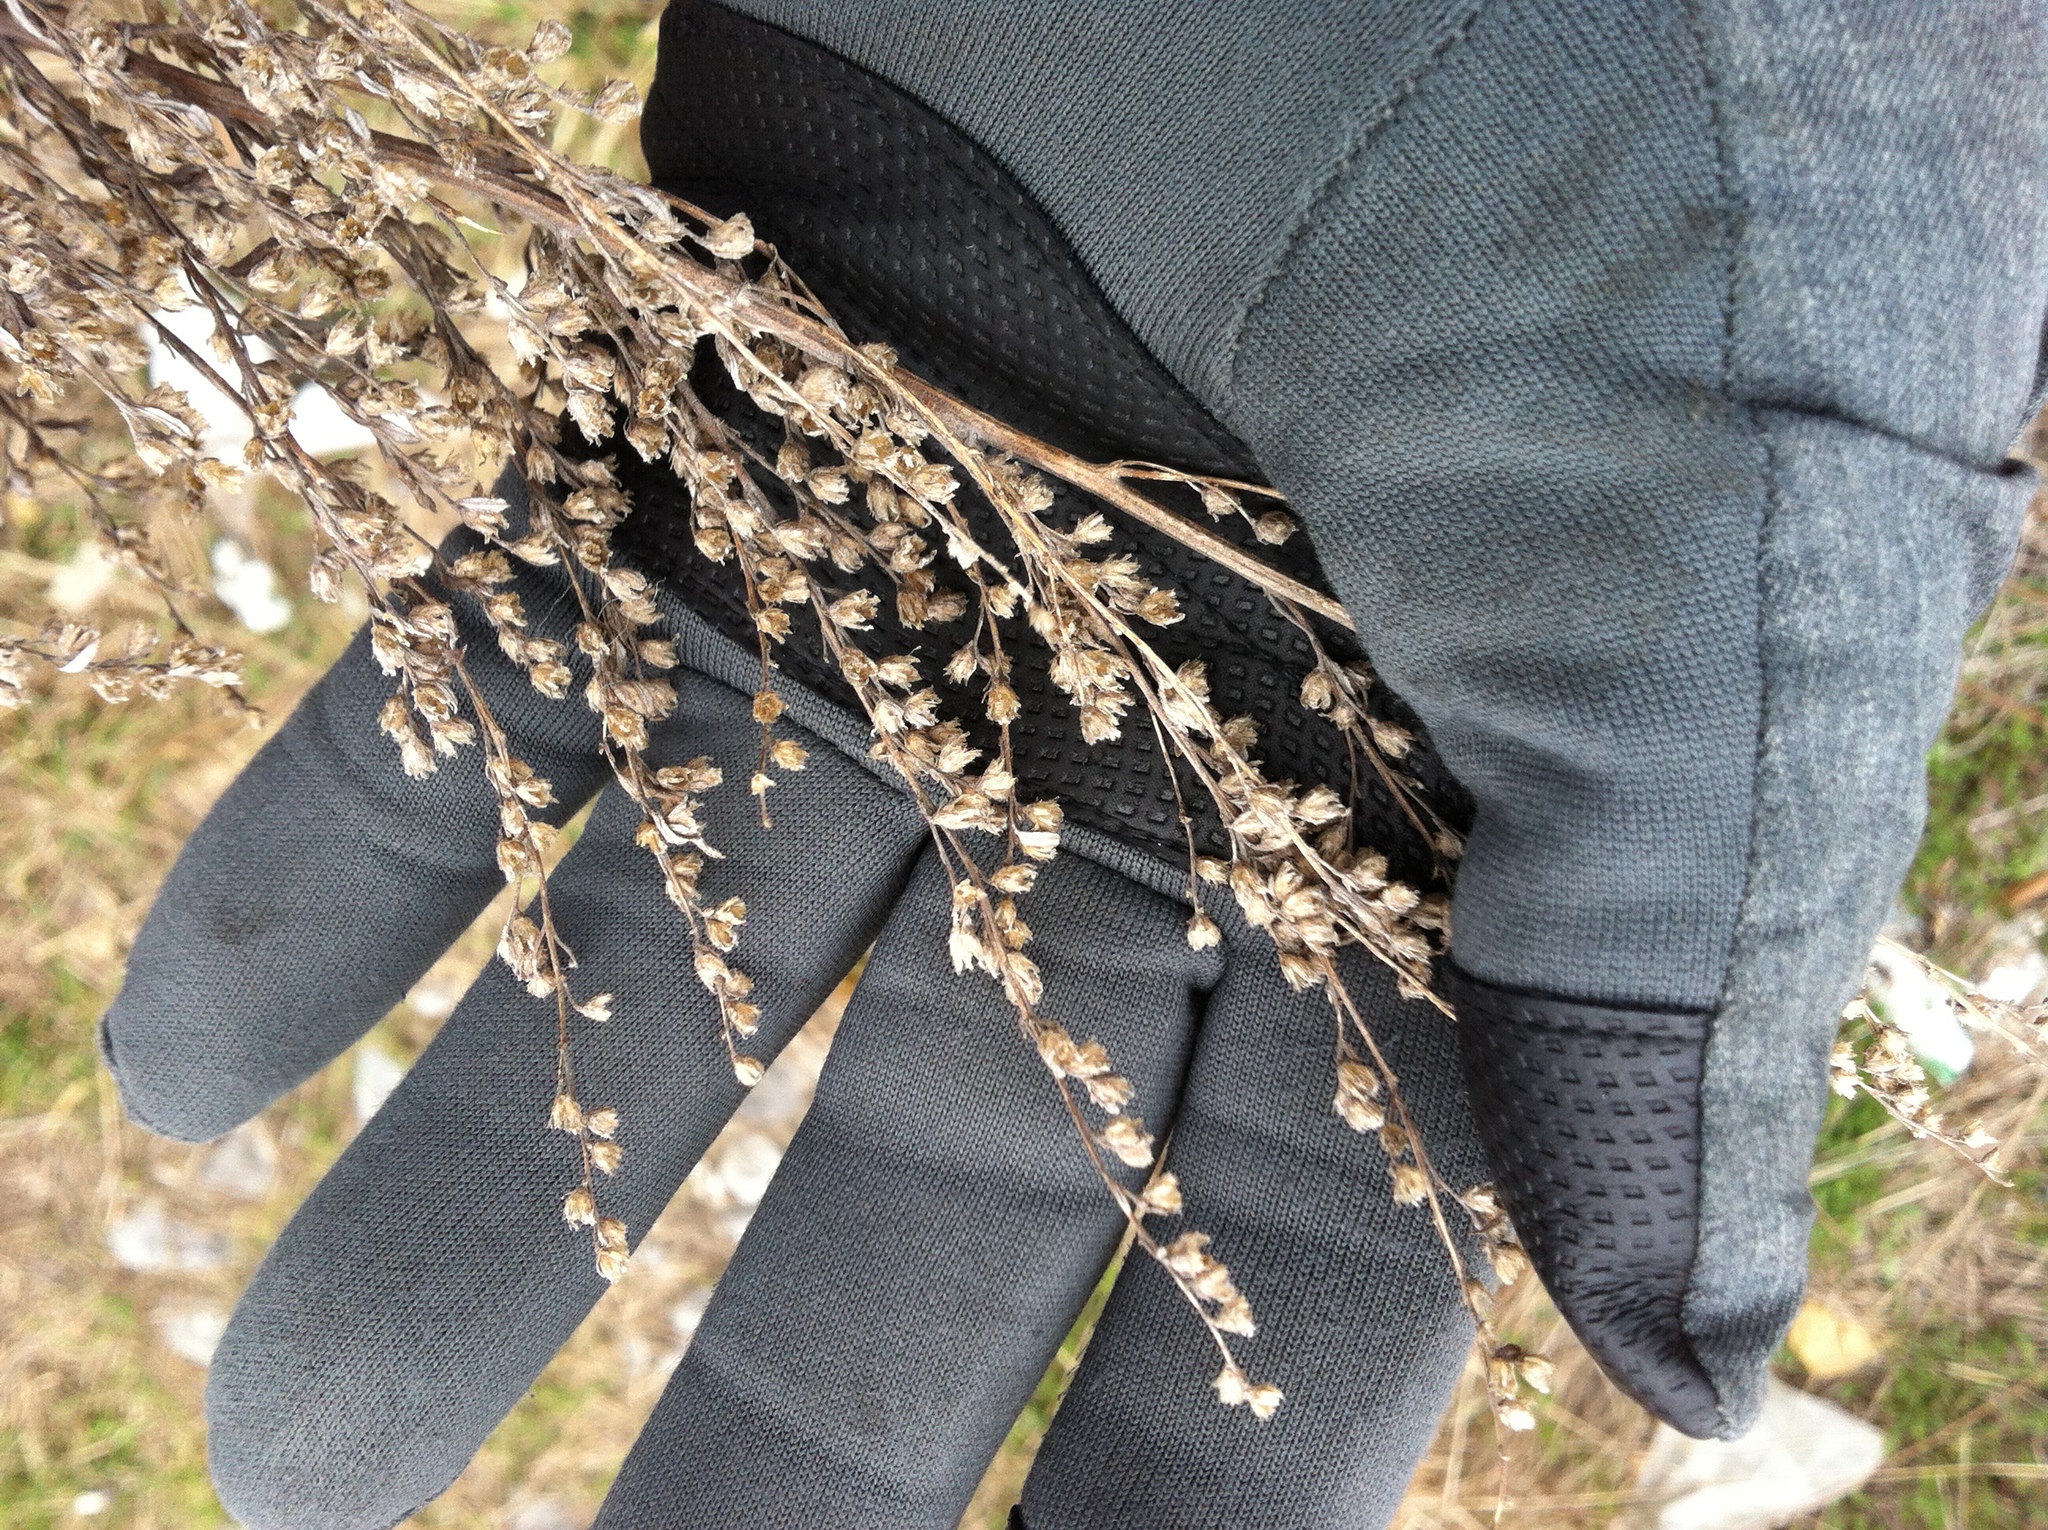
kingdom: Plantae
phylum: Tracheophyta
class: Magnoliopsida
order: Asterales
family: Asteraceae
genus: Artemisia
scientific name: Artemisia vulgaris
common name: Mugwort
